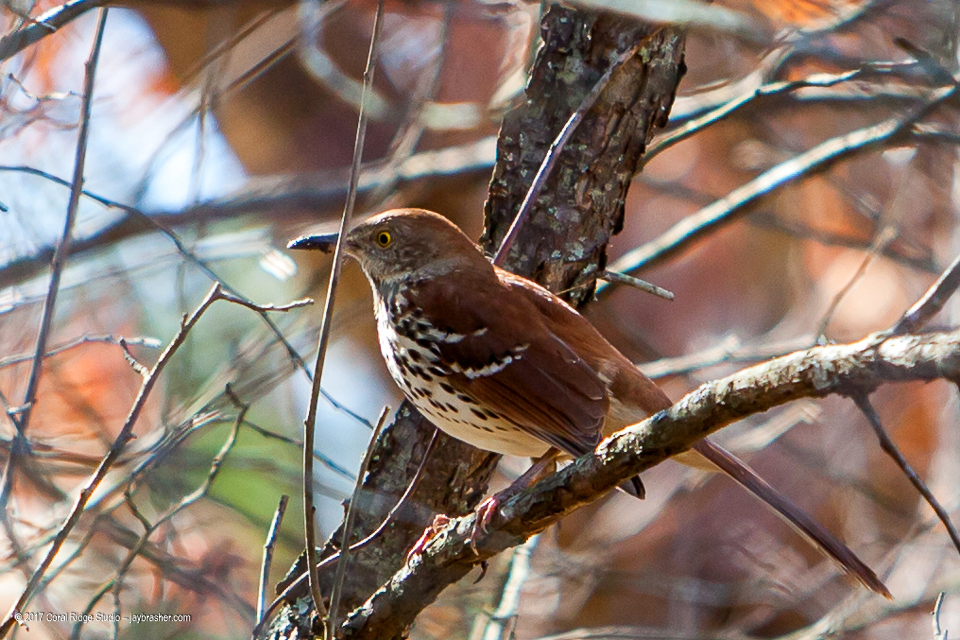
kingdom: Animalia
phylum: Chordata
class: Aves
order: Passeriformes
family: Mimidae
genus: Toxostoma
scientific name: Toxostoma rufum
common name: Brown thrasher
